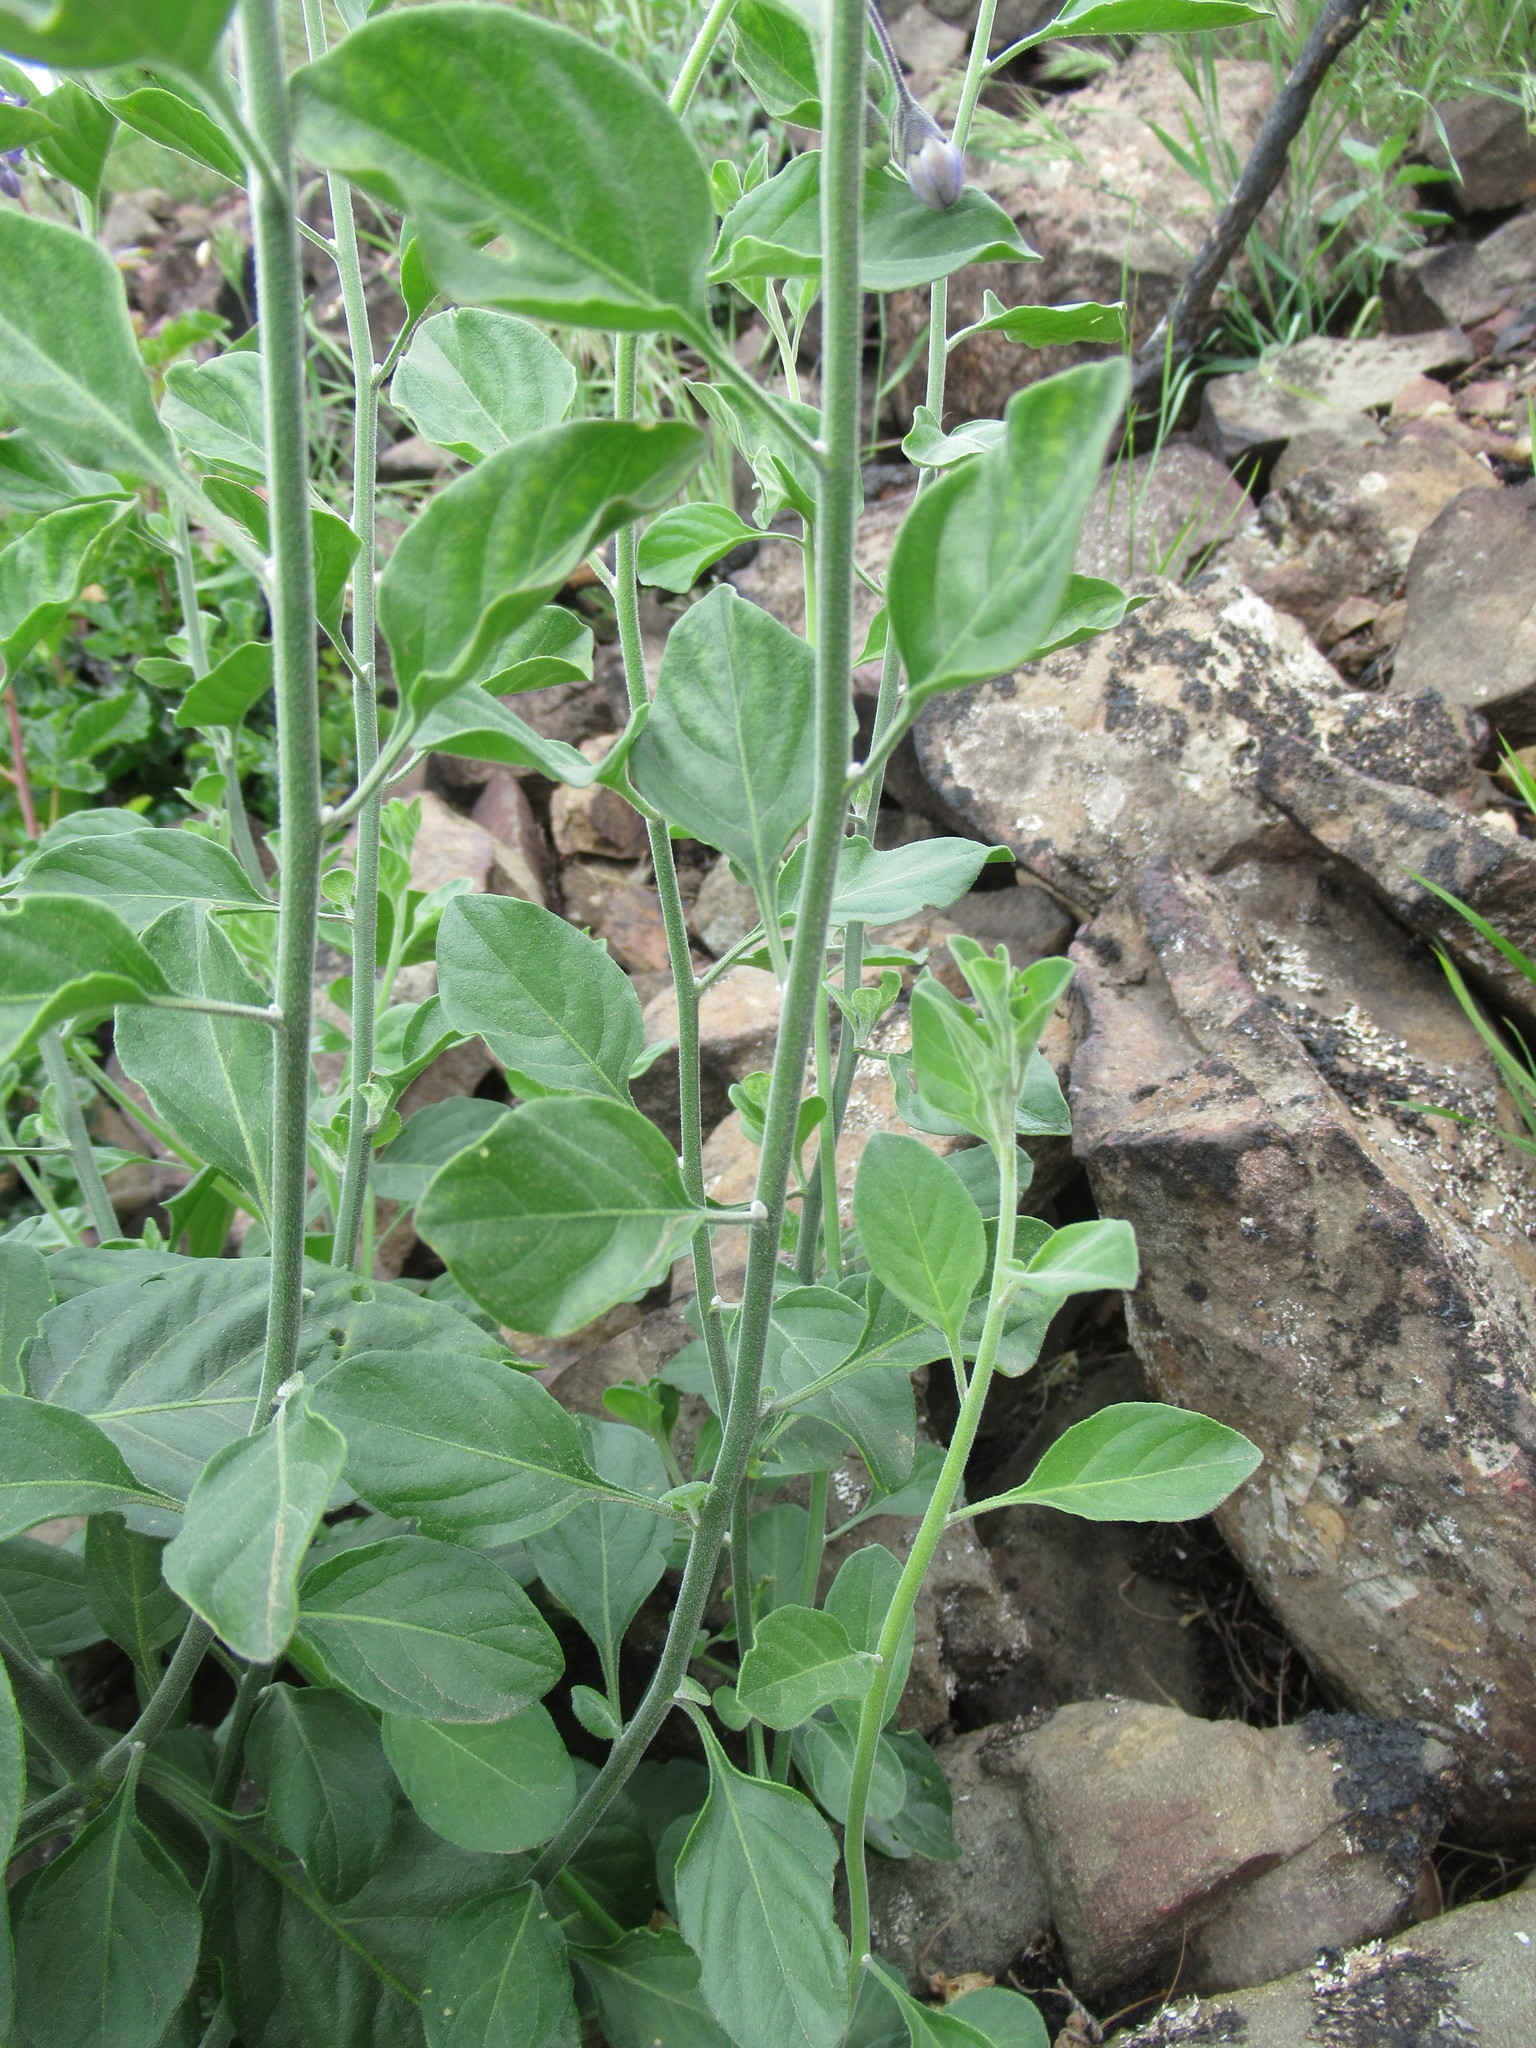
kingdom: Plantae
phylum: Tracheophyta
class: Magnoliopsida
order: Solanales
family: Solanaceae
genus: Solanum
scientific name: Solanum umbelliferum
